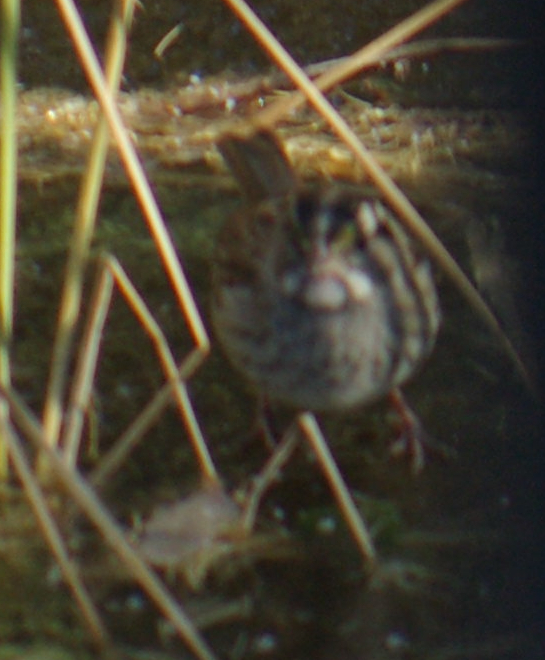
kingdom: Animalia
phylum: Chordata
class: Aves
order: Passeriformes
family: Passerellidae
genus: Zonotrichia
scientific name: Zonotrichia albicollis
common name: White-throated sparrow
